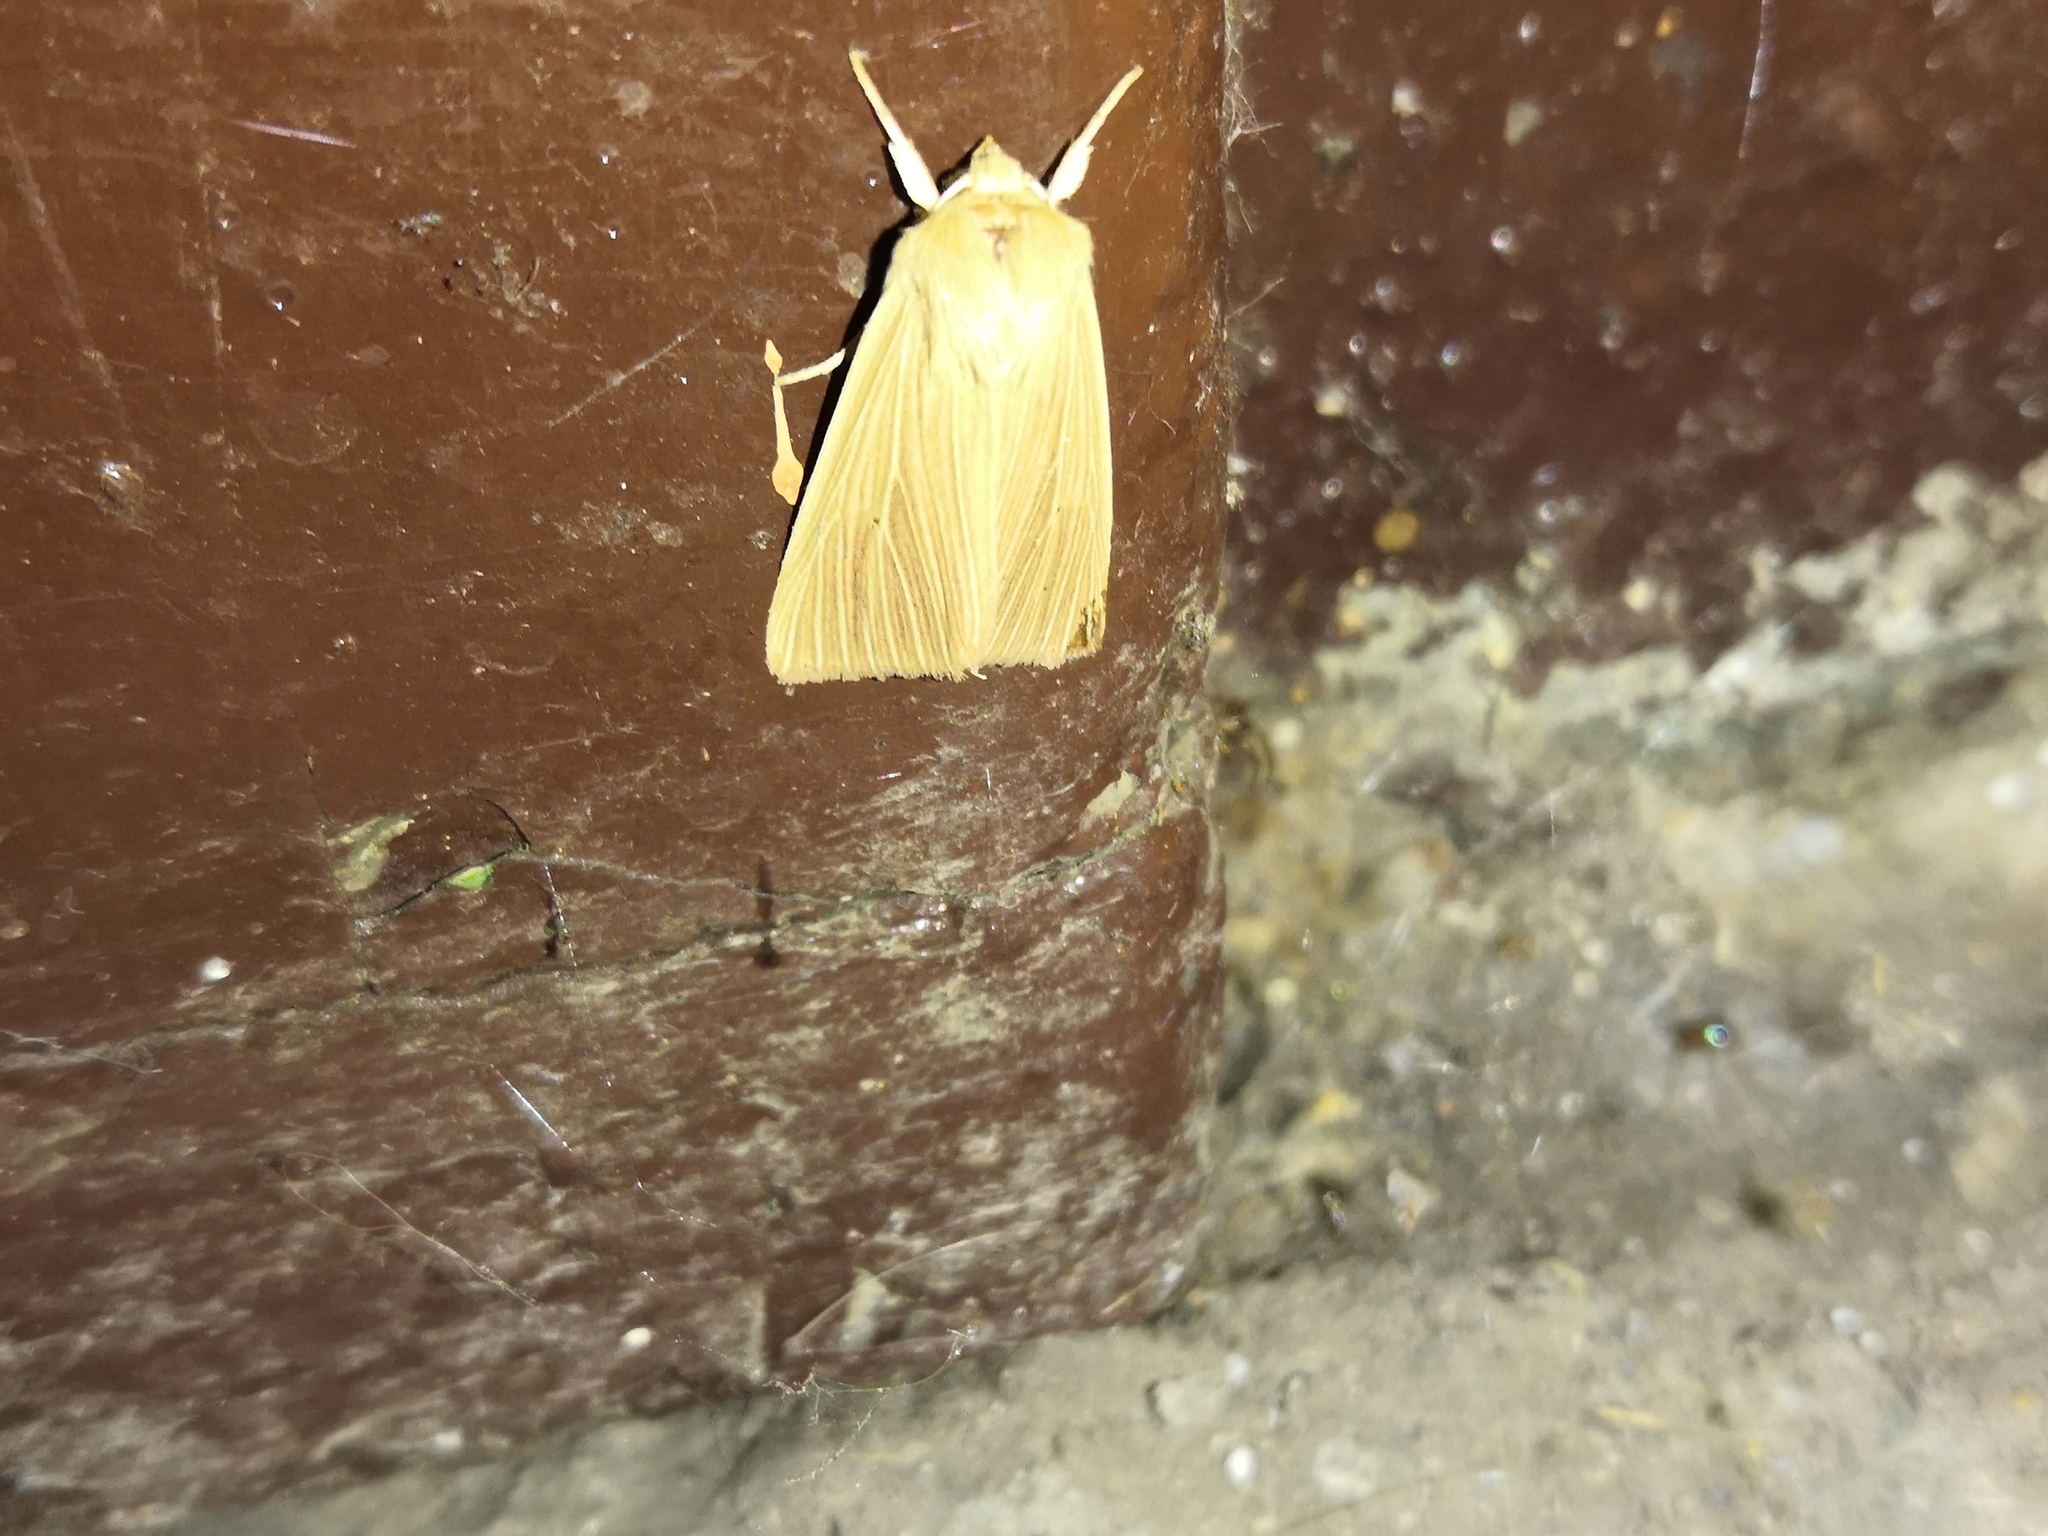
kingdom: Animalia
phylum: Arthropoda
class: Insecta
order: Lepidoptera
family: Noctuidae
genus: Mythimna
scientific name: Mythimna pallens
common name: Common wainscot
